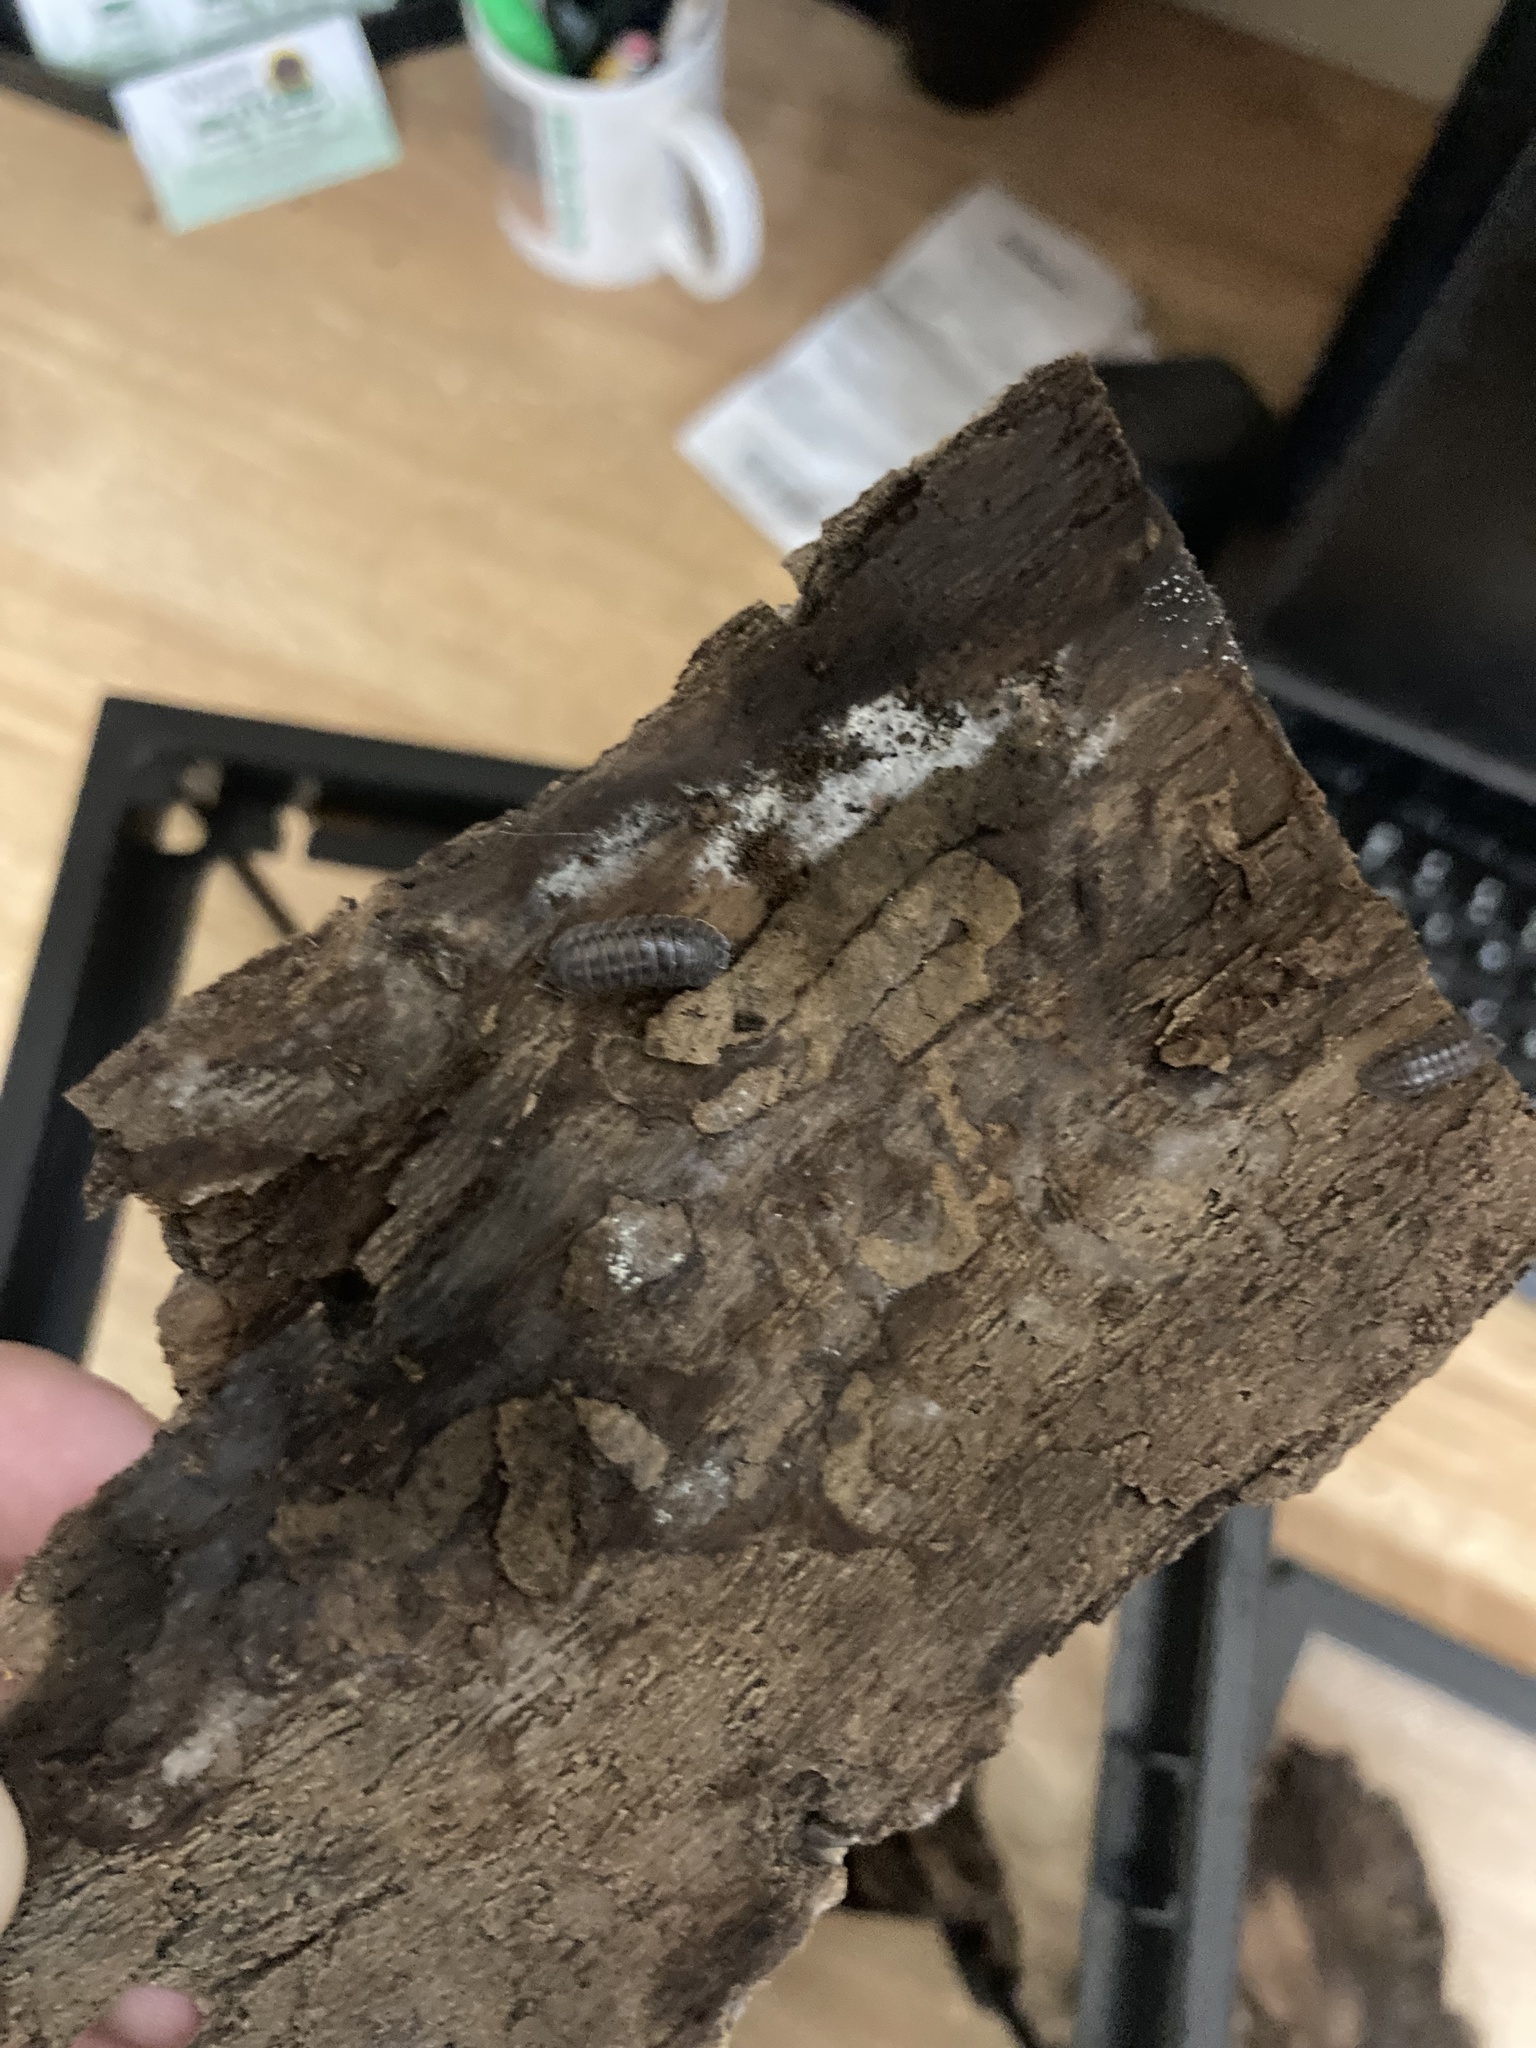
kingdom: Animalia
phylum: Arthropoda
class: Malacostraca
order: Isopoda
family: Armadillidiidae
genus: Armadillidium
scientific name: Armadillidium nasatum
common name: Isopod
